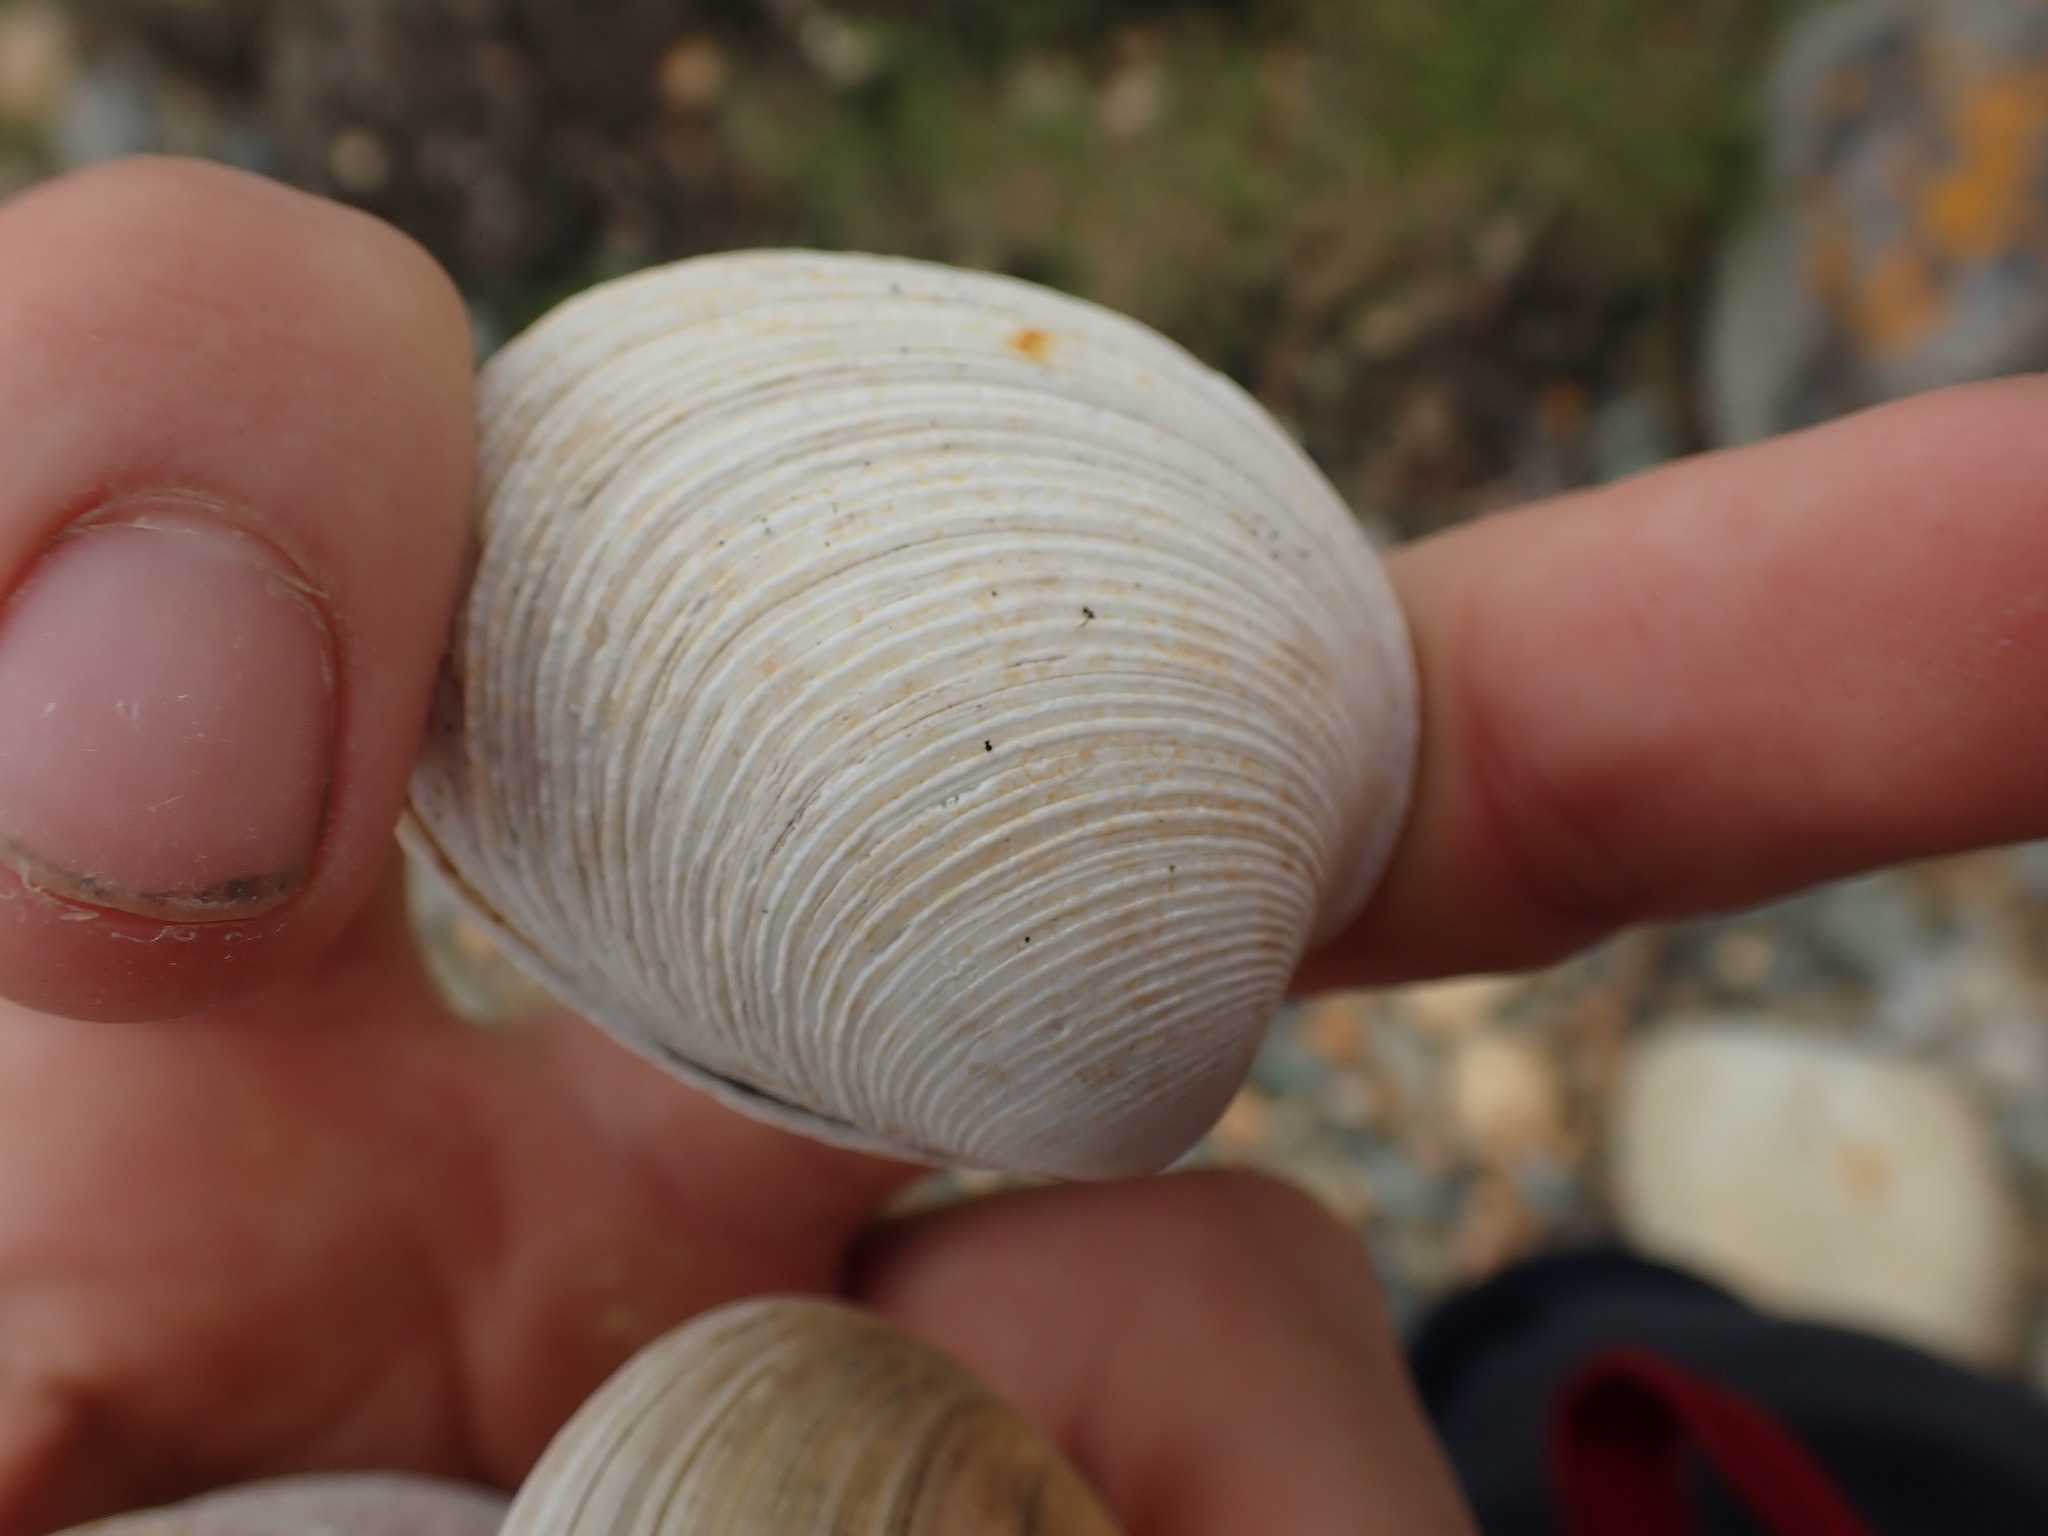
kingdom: Animalia
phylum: Mollusca
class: Bivalvia
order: Venerida
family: Veneridae
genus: Dosina
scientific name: Dosina mactracea
